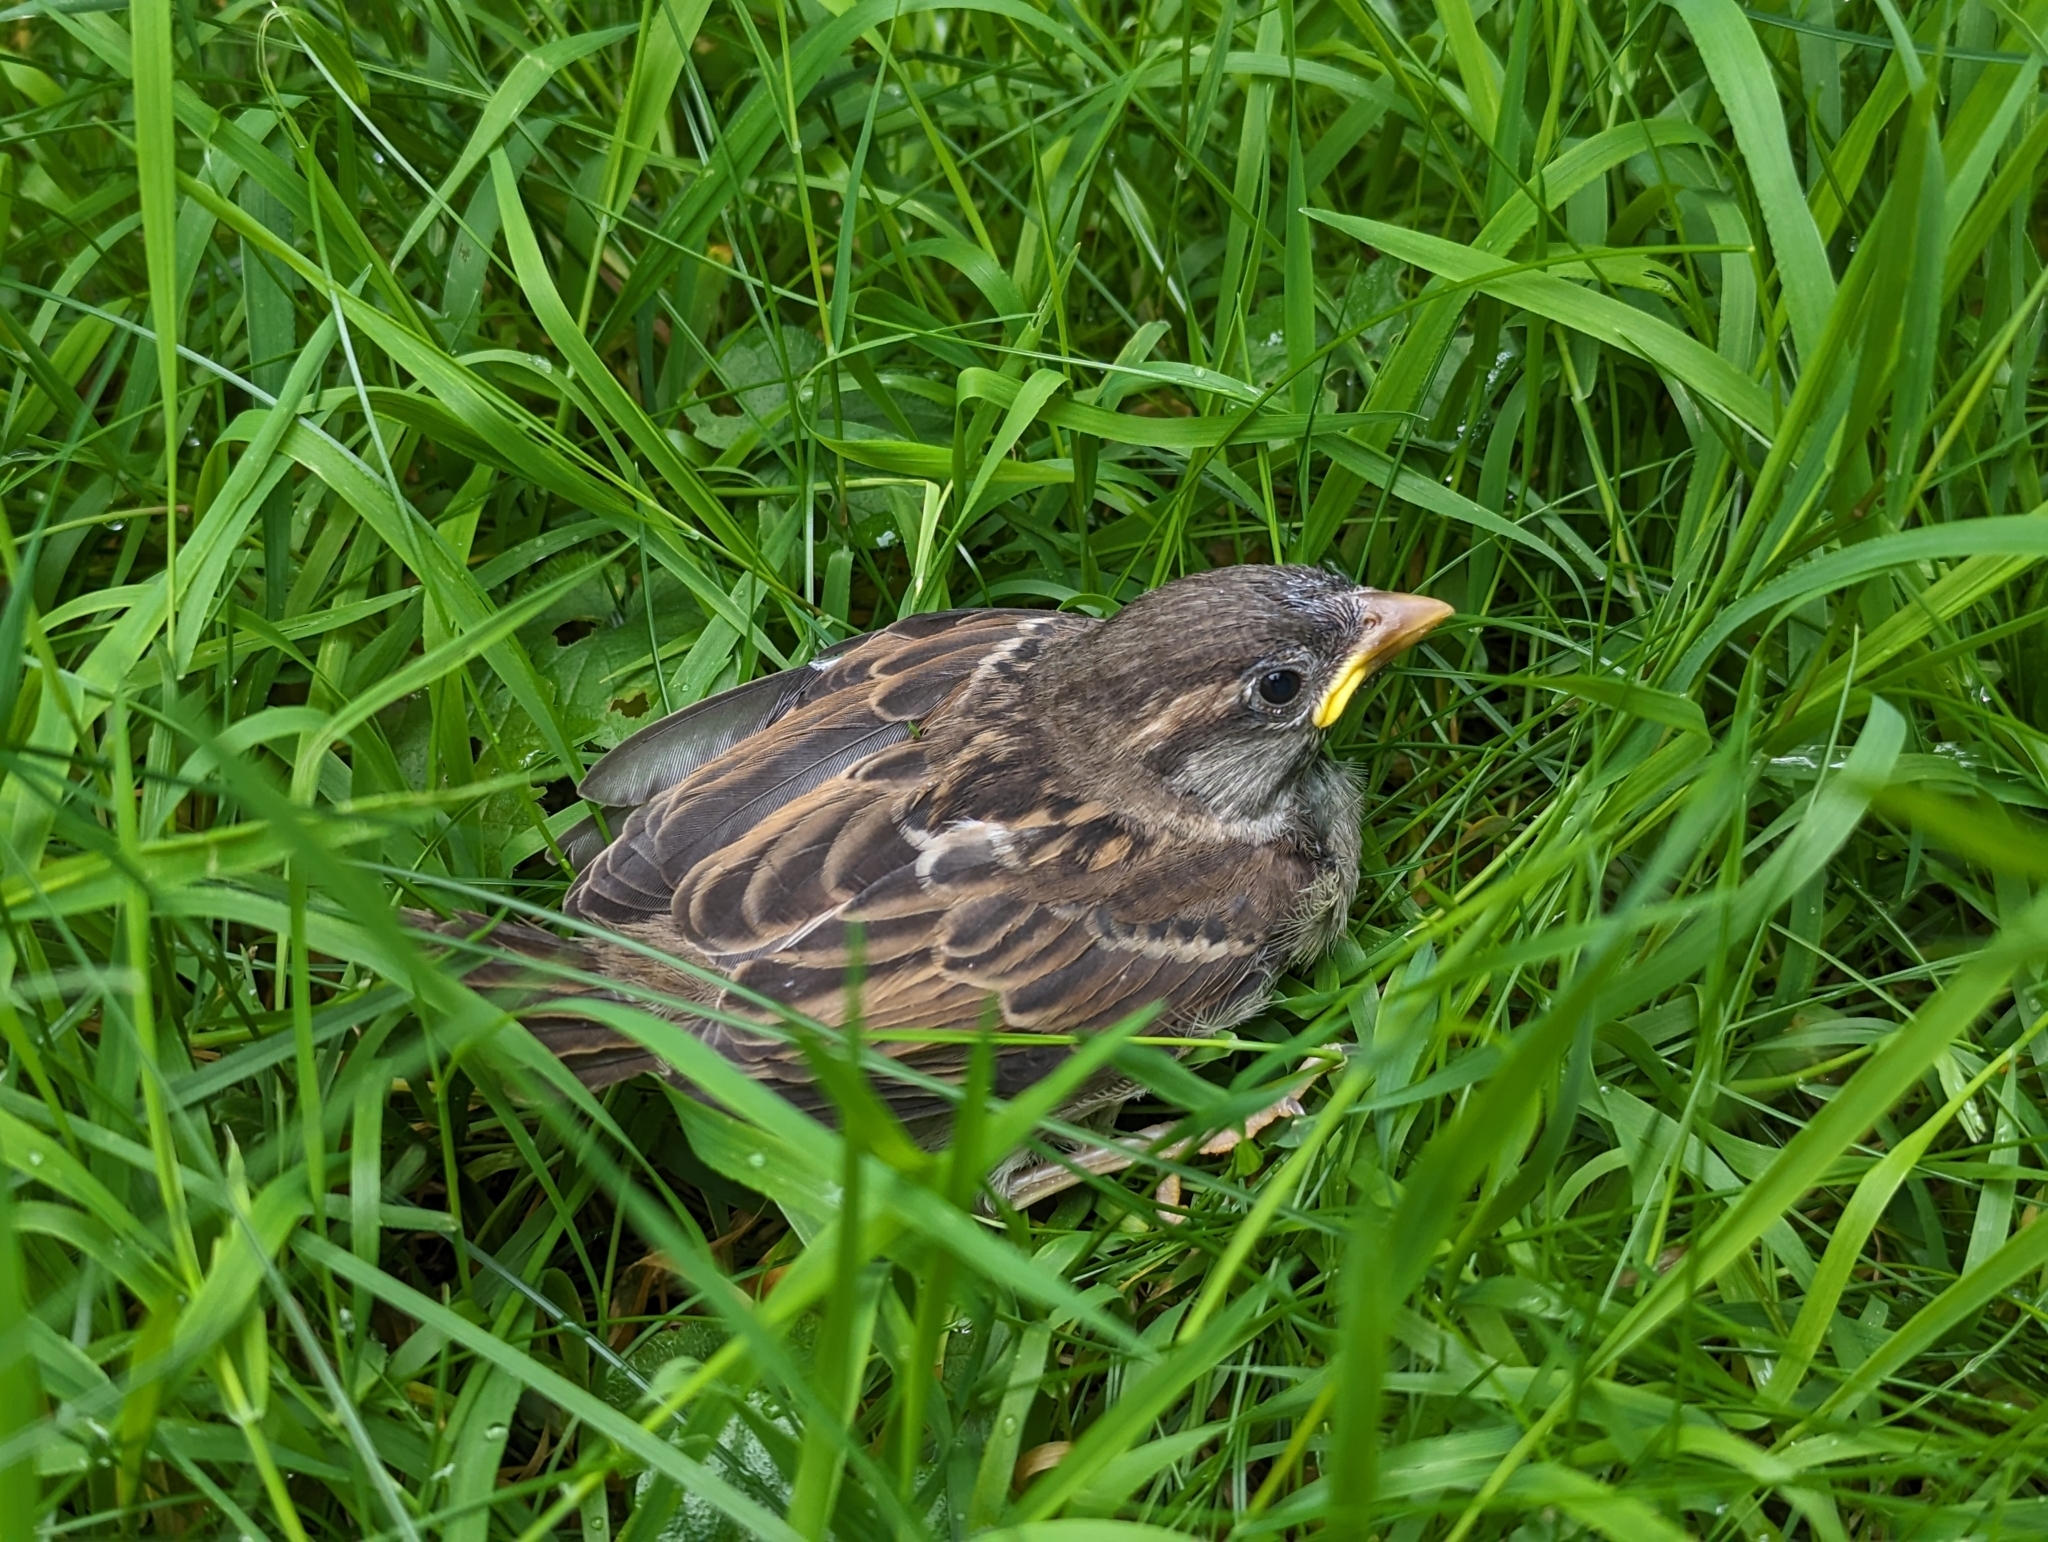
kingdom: Animalia
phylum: Chordata
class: Aves
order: Passeriformes
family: Passeridae
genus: Passer
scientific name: Passer domesticus
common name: House sparrow
